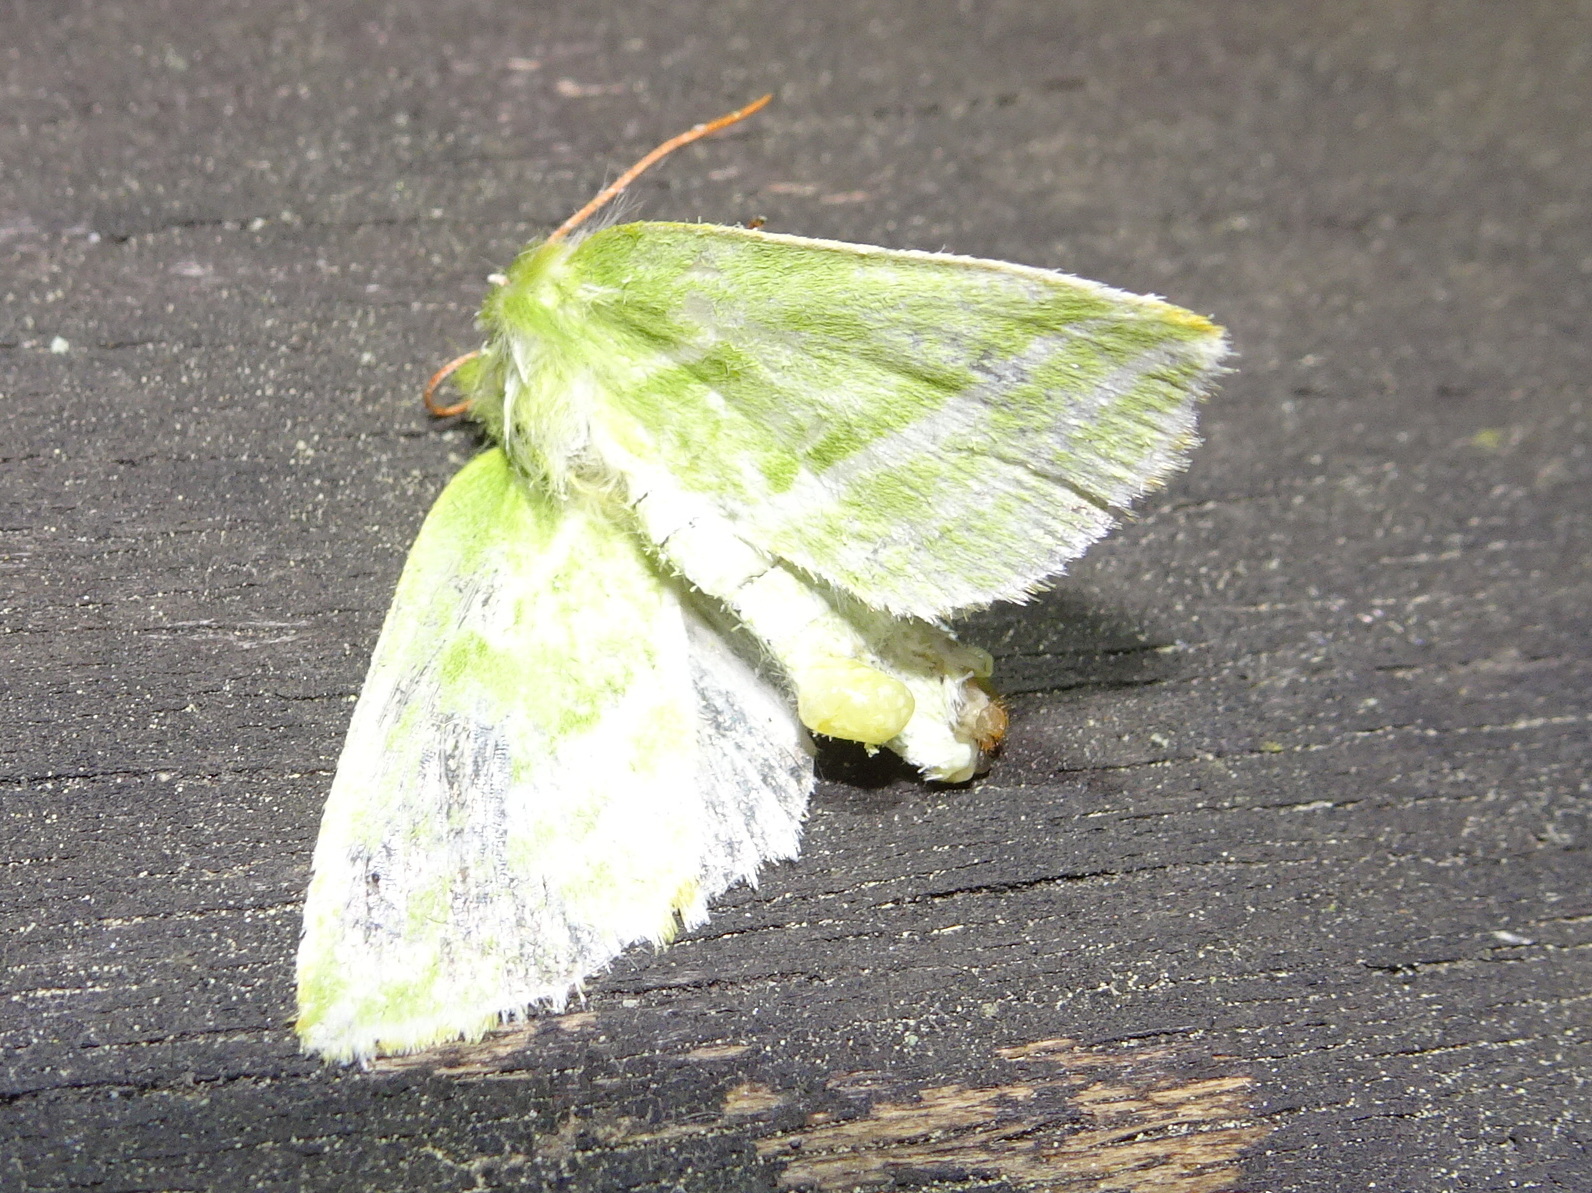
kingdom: Animalia
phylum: Arthropoda
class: Insecta
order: Lepidoptera
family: Nolidae
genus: Pseudoips
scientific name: Pseudoips prasinana
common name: Green silver-lines
